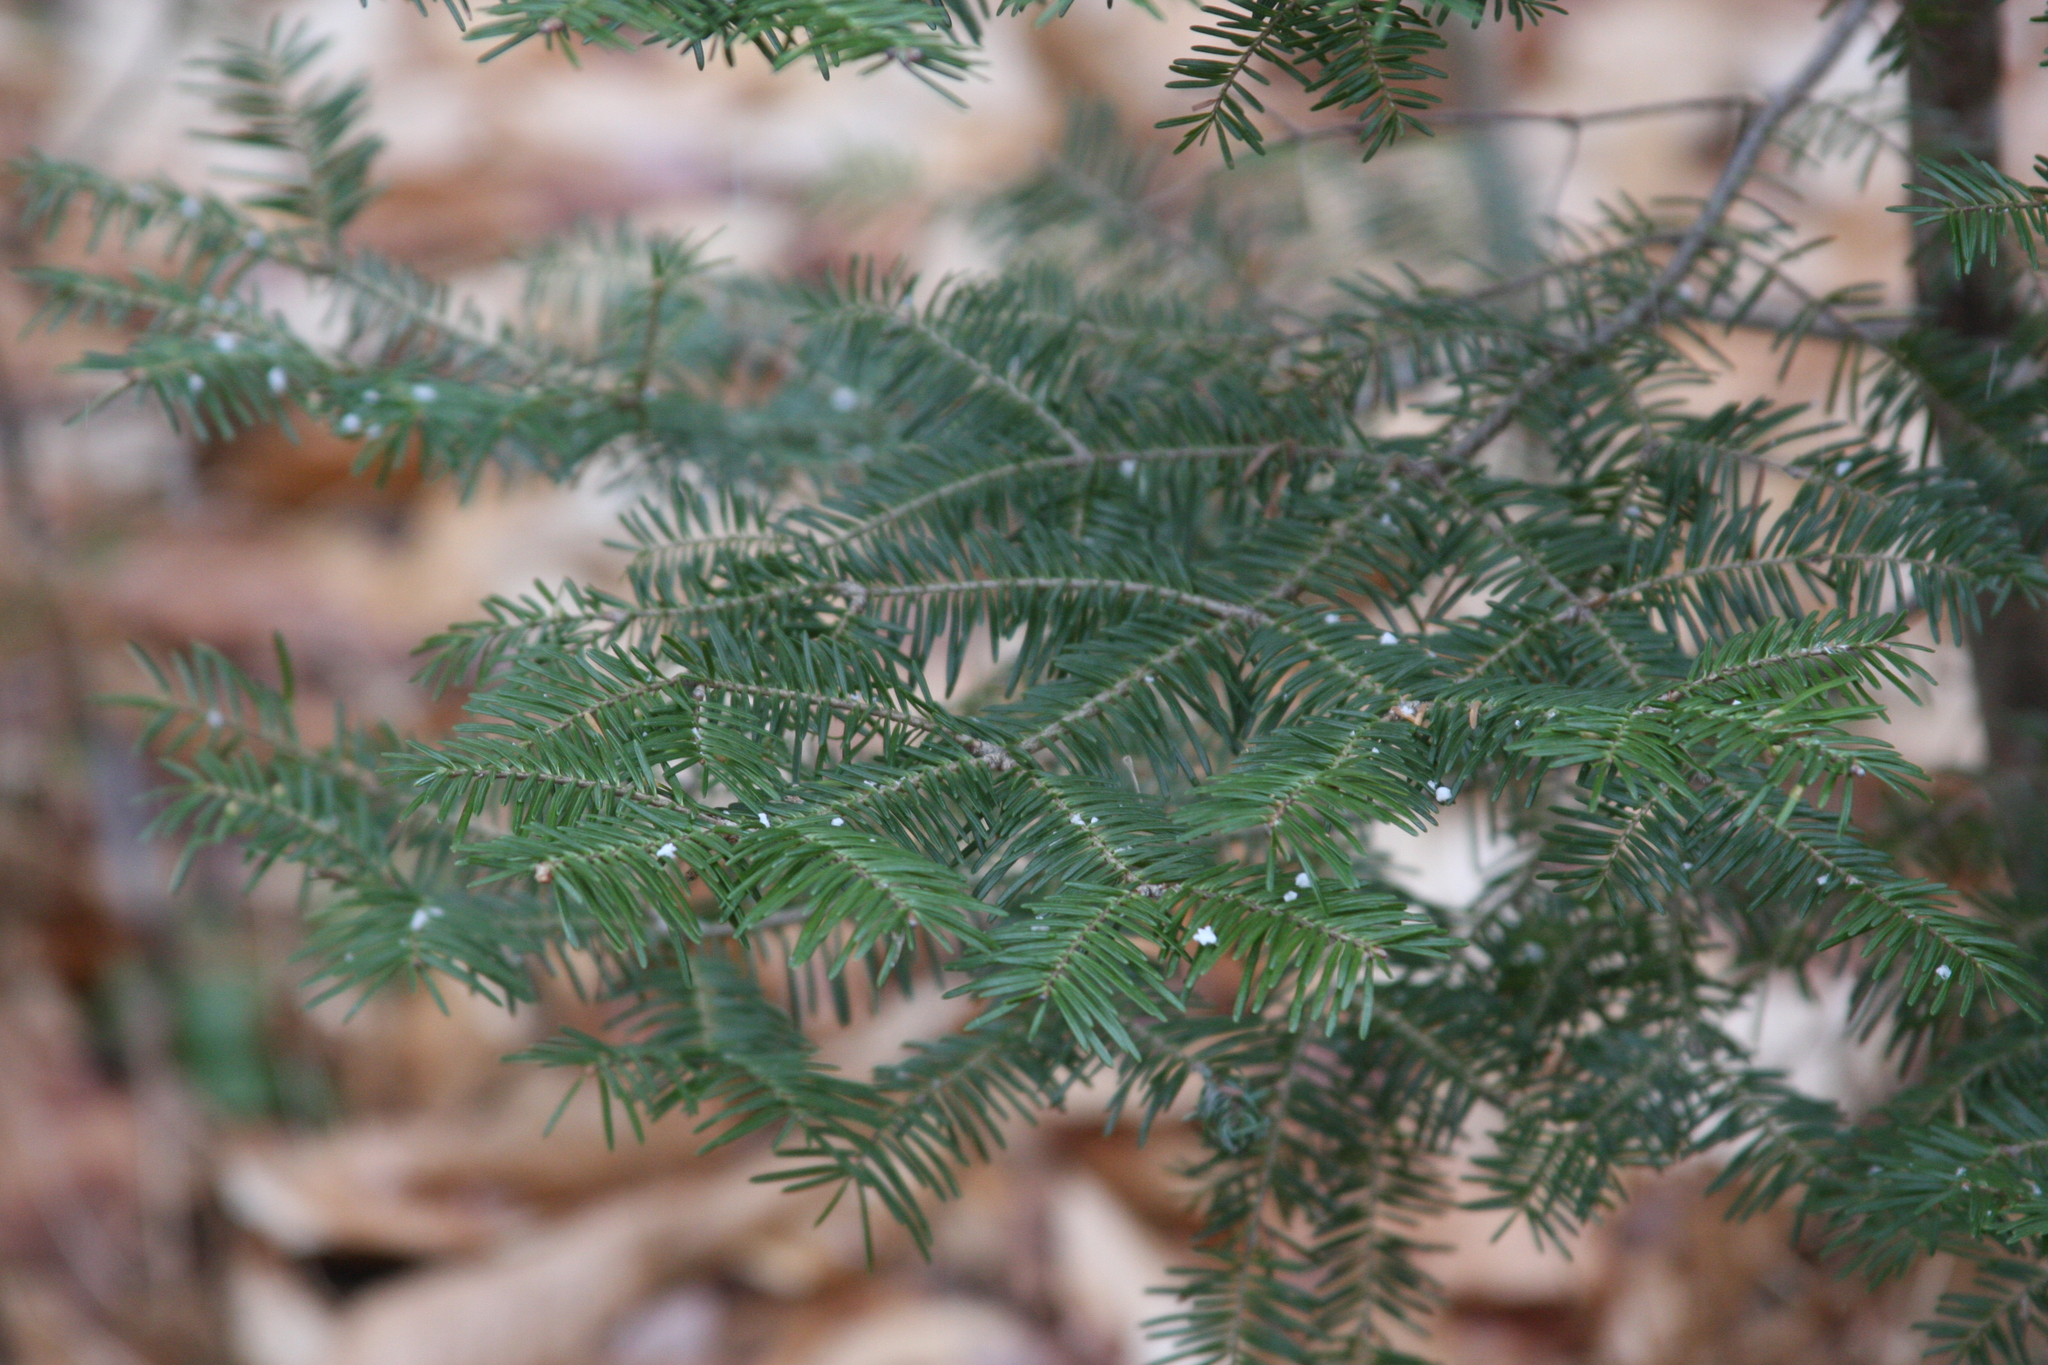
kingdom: Plantae
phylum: Tracheophyta
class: Pinopsida
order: Pinales
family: Pinaceae
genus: Abies
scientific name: Abies balsamea
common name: Balsam fir
